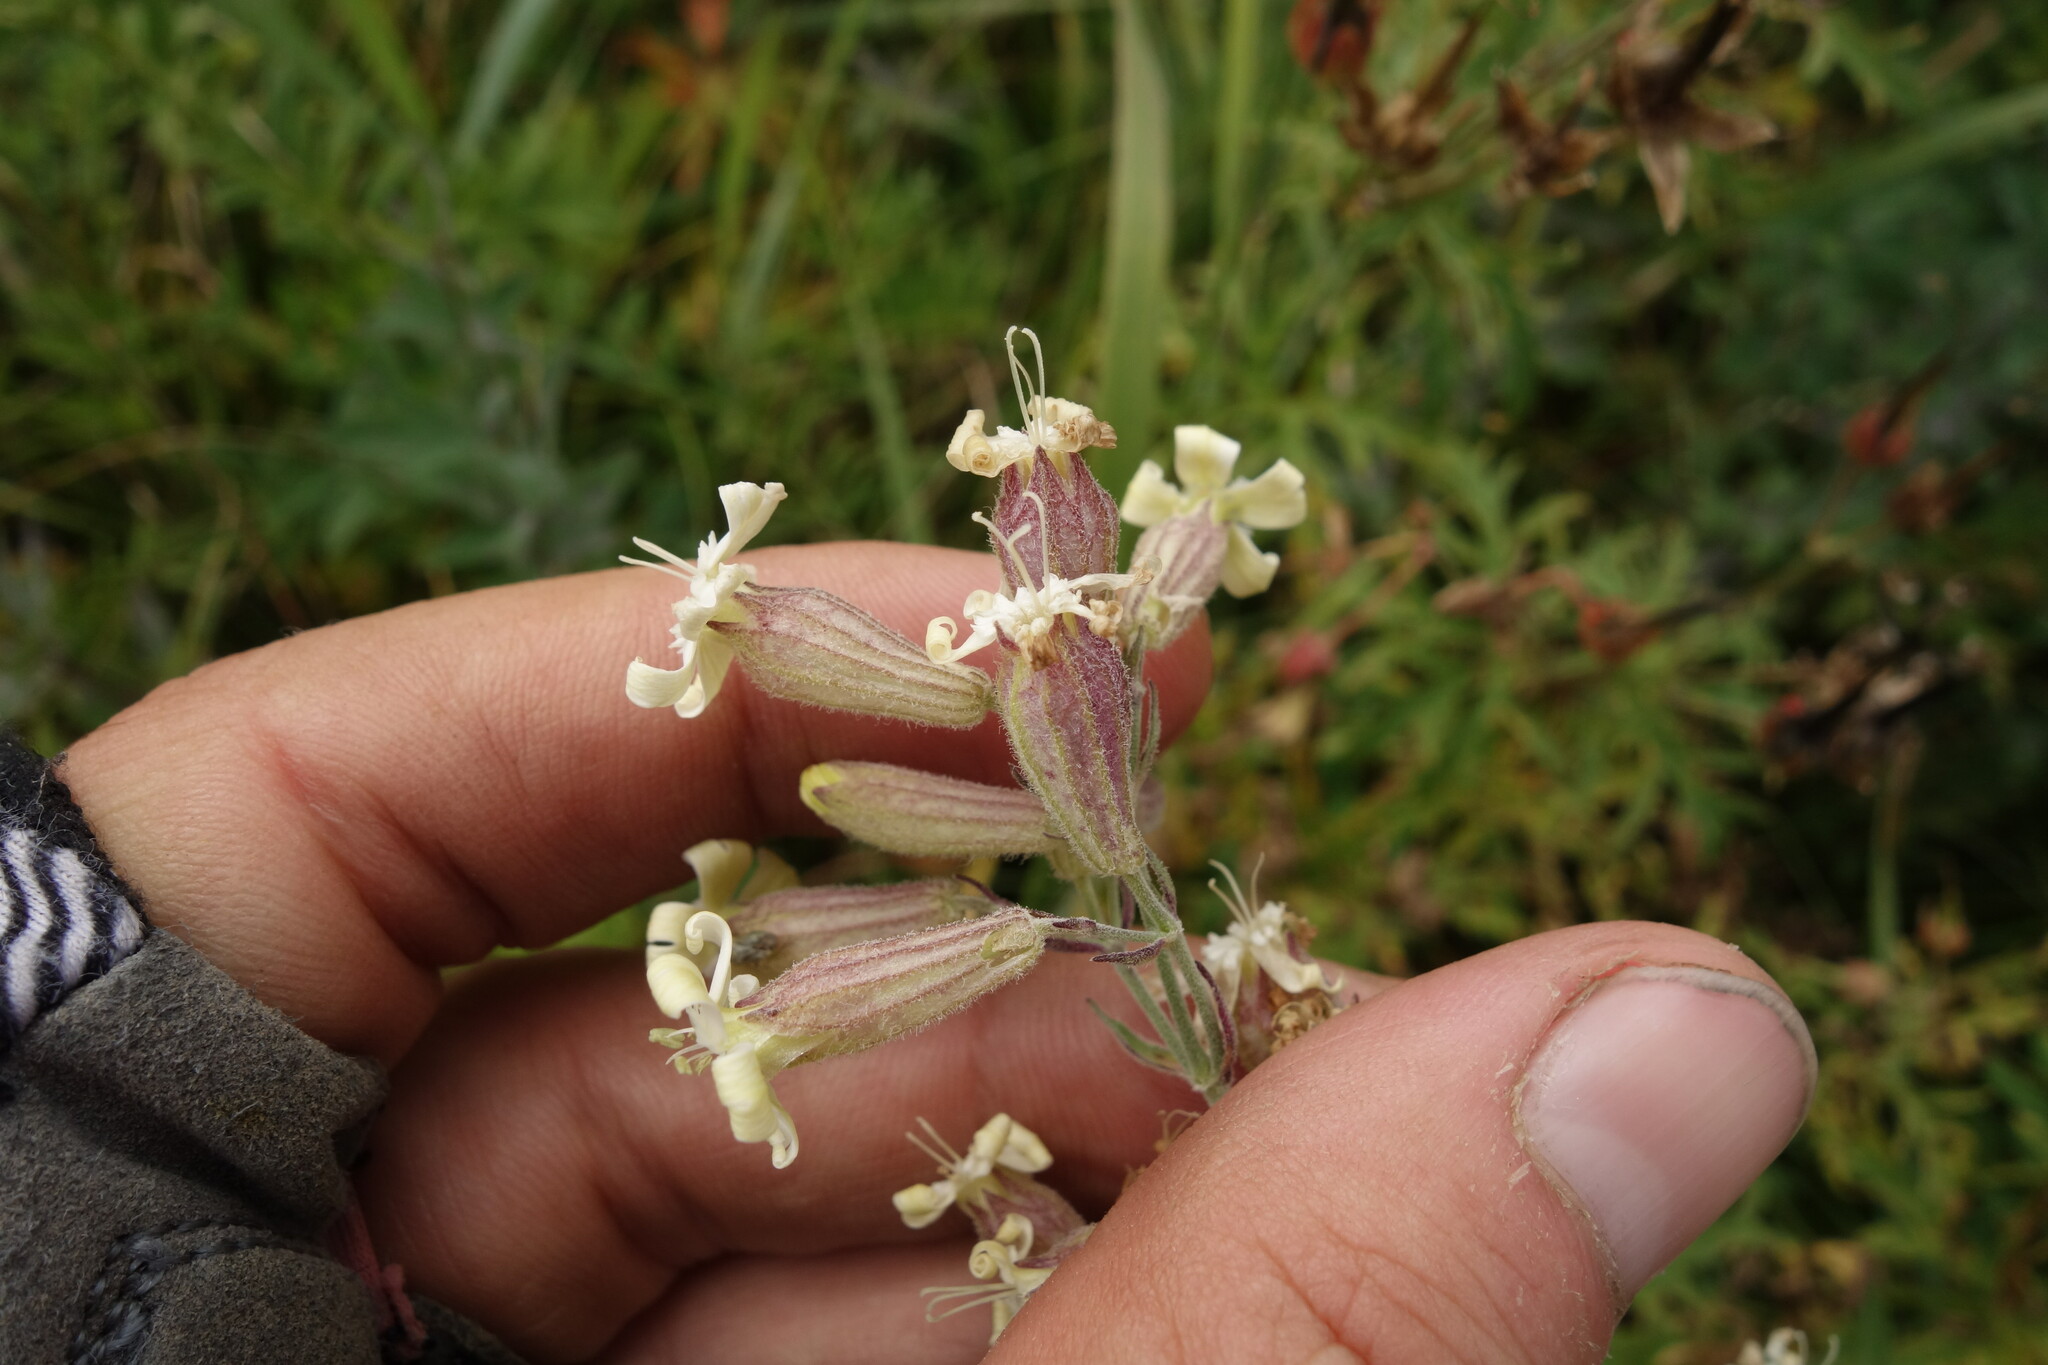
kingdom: Plantae
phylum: Tracheophyta
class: Magnoliopsida
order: Caryophyllales
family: Caryophyllaceae
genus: Silene
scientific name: Silene amoena
